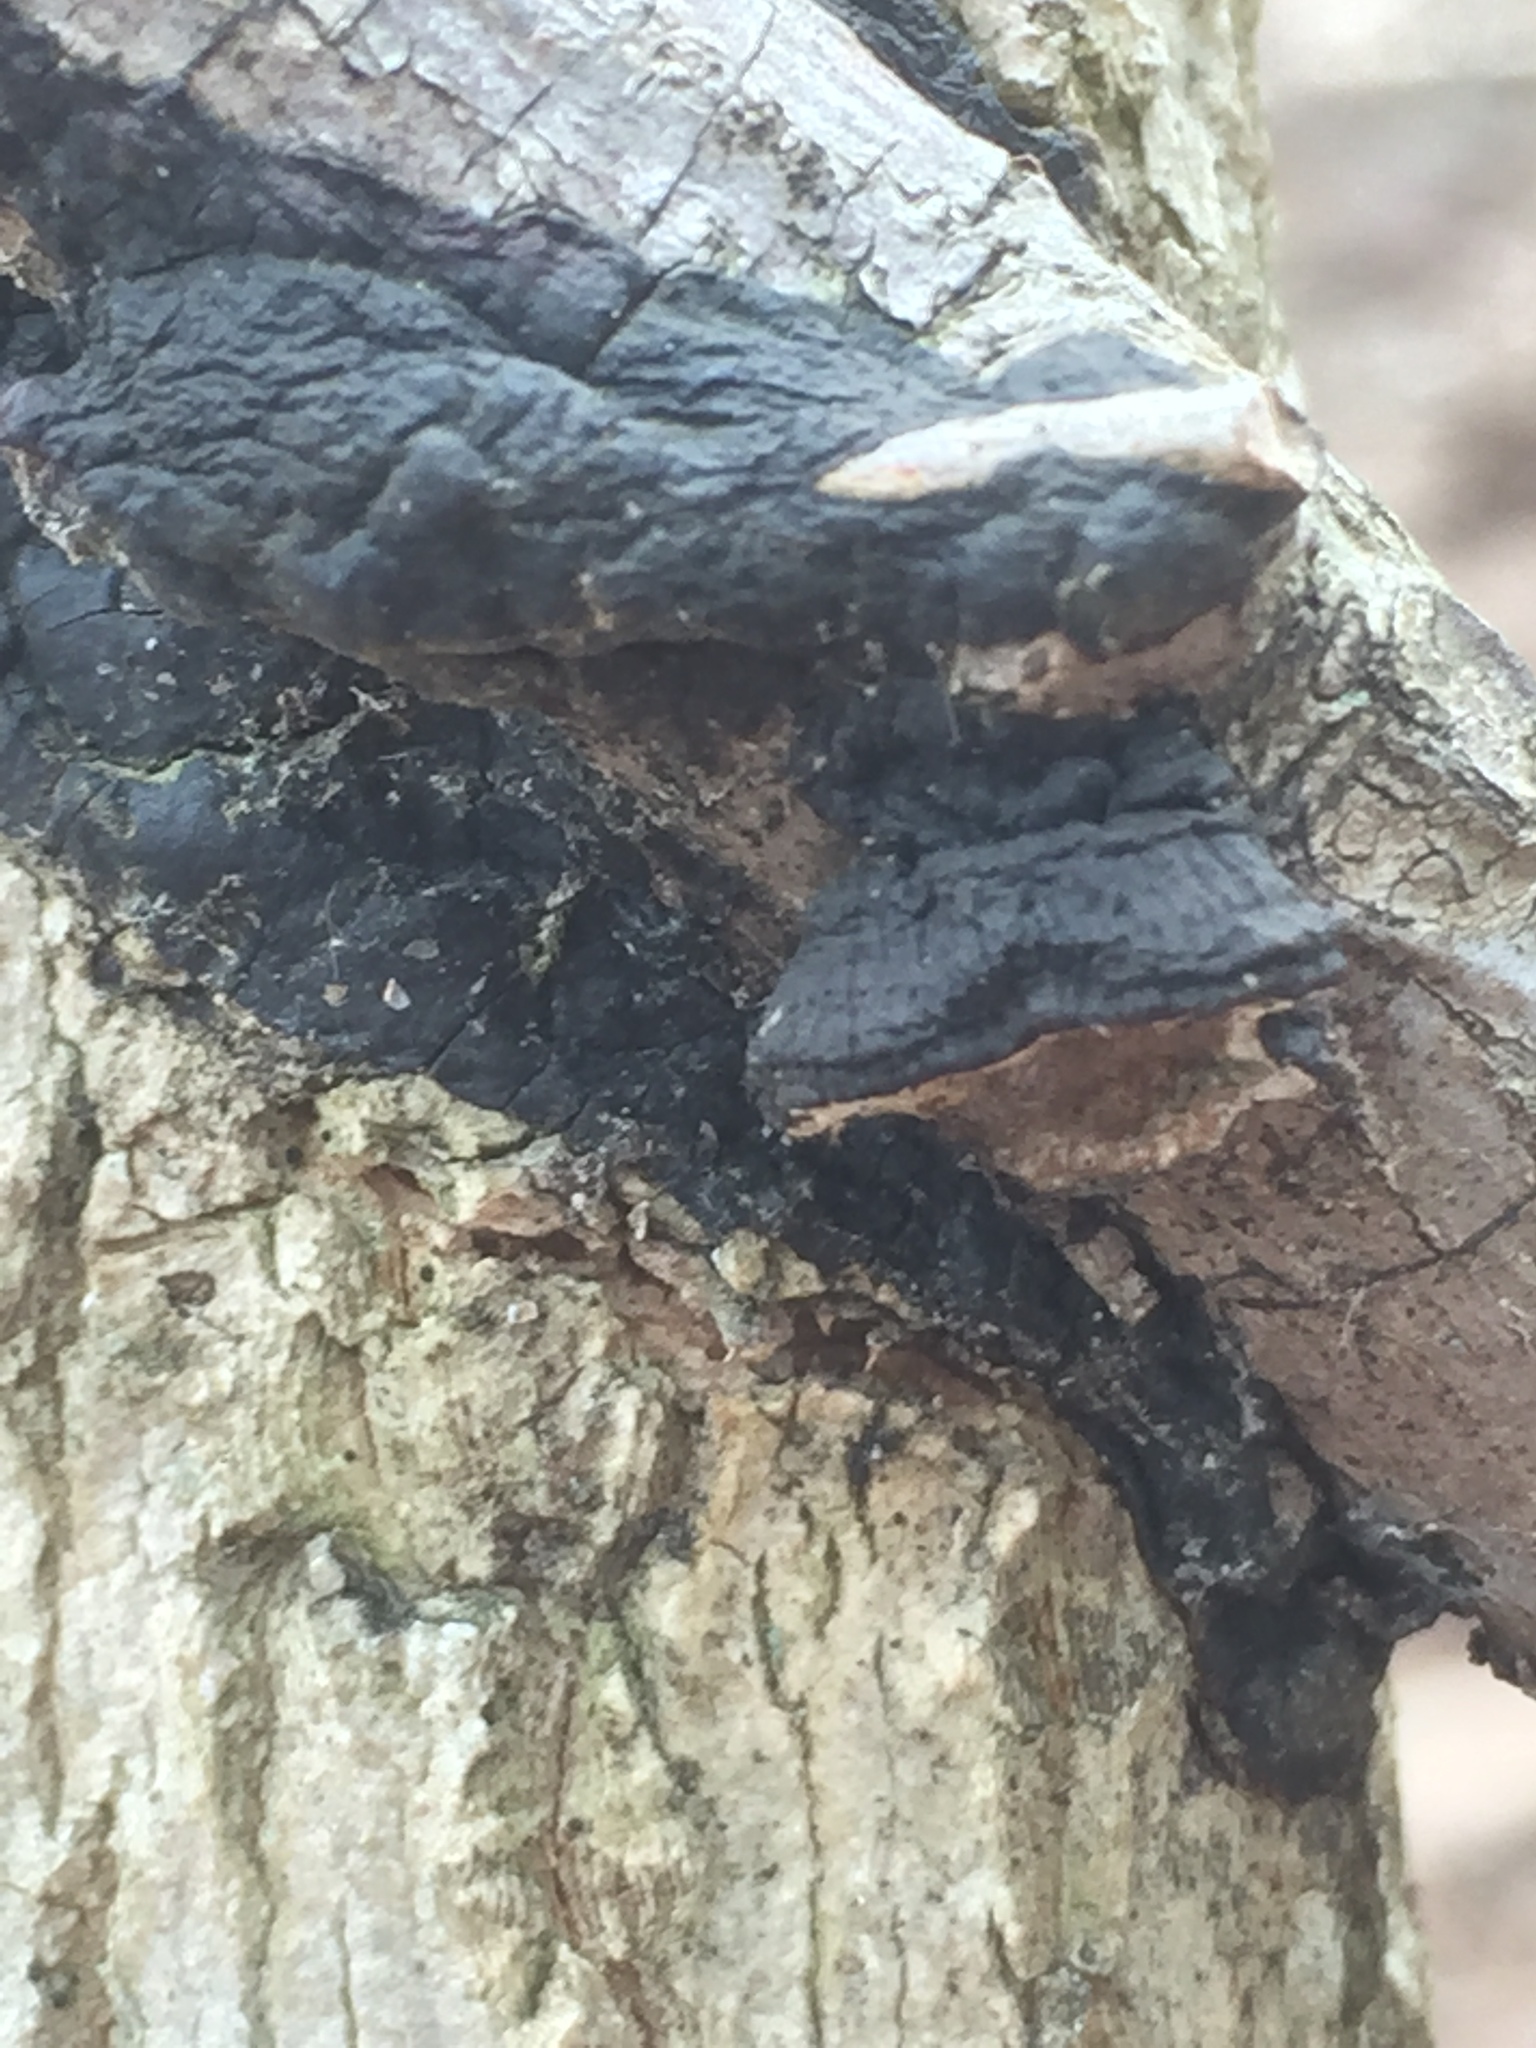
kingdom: Fungi
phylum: Basidiomycota
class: Agaricomycetes
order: Hymenochaetales
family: Hymenochaetaceae
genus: Hydnoporia
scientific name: Hydnoporia diffissa
